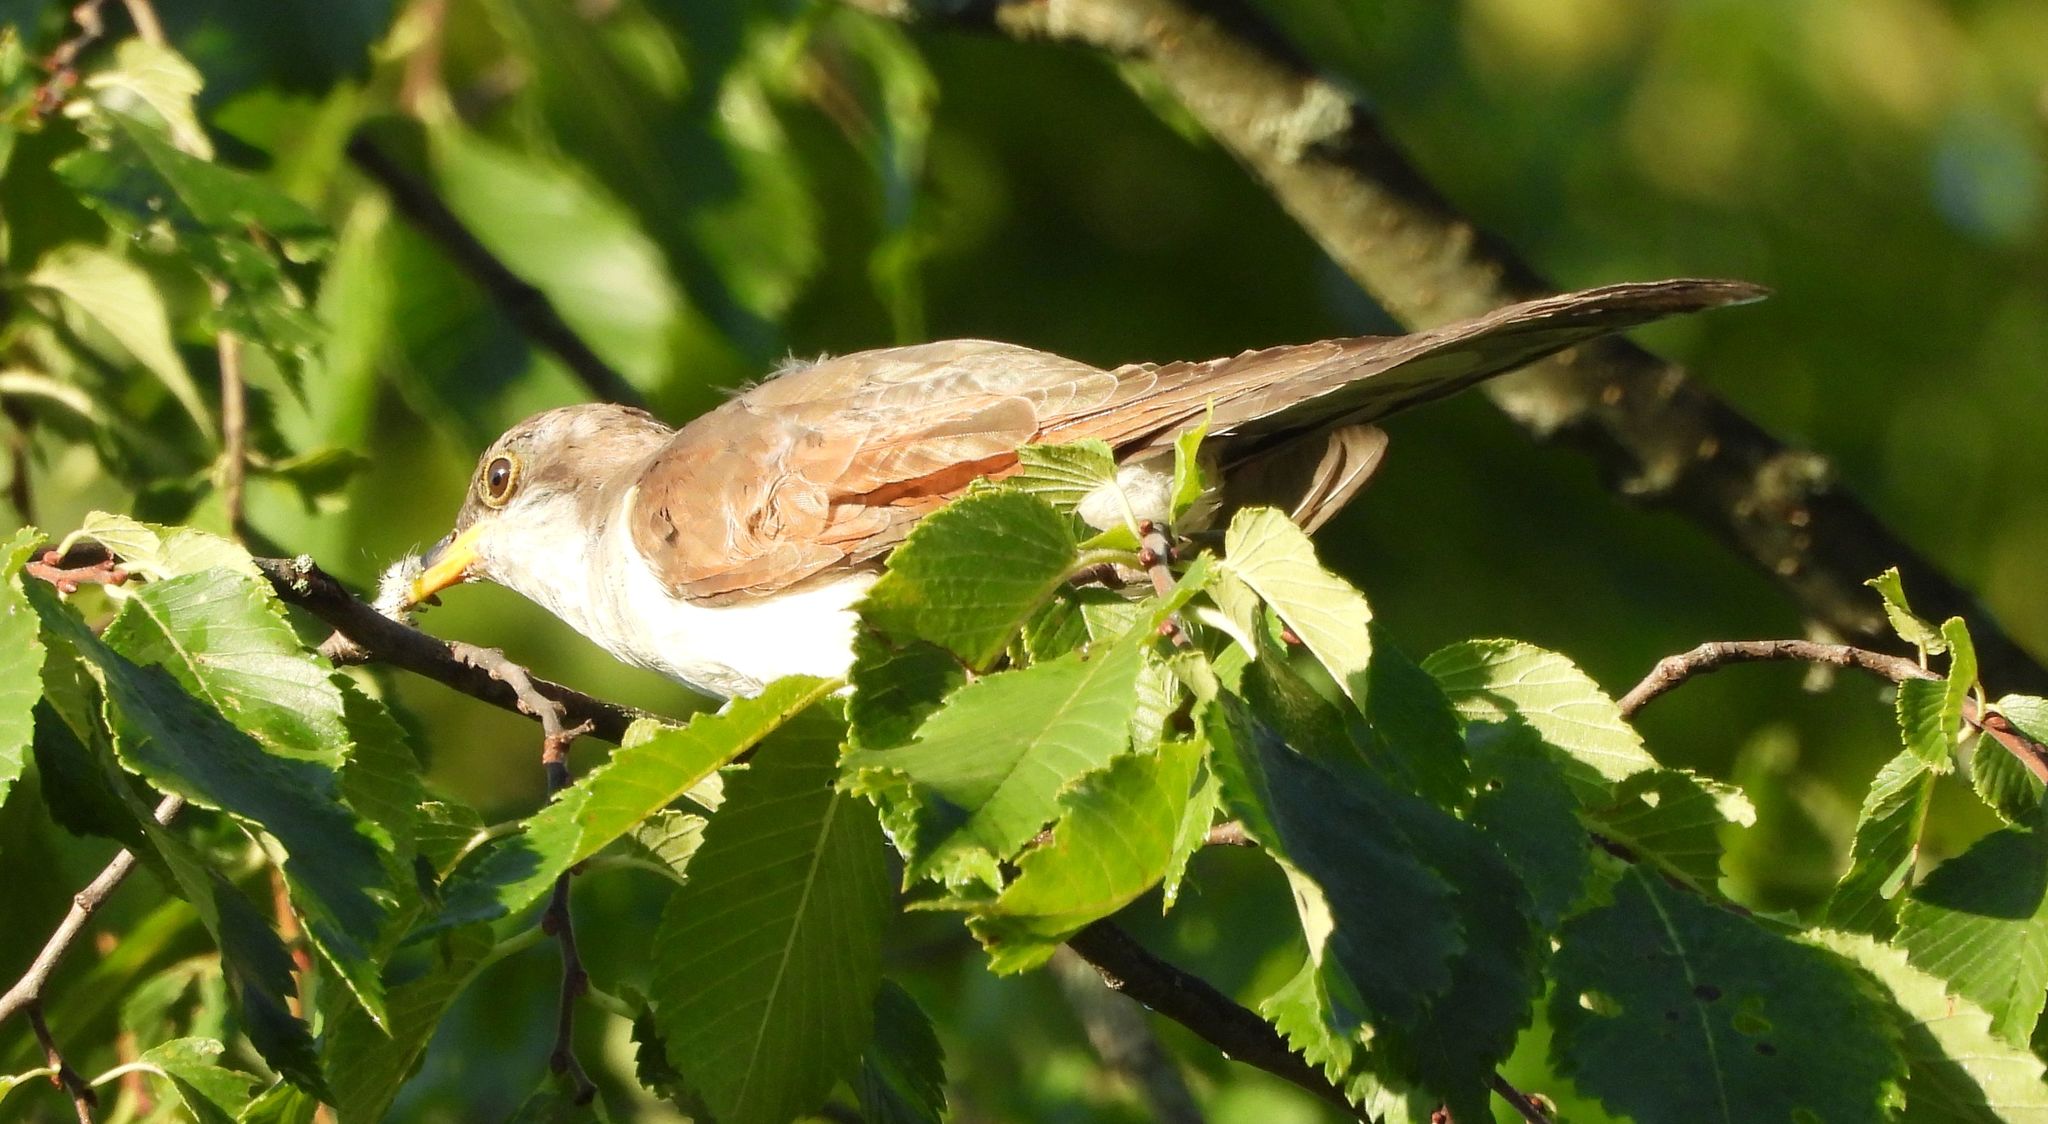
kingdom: Animalia
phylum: Chordata
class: Aves
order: Cuculiformes
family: Cuculidae
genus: Coccyzus
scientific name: Coccyzus americanus
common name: Yellow-billed cuckoo
